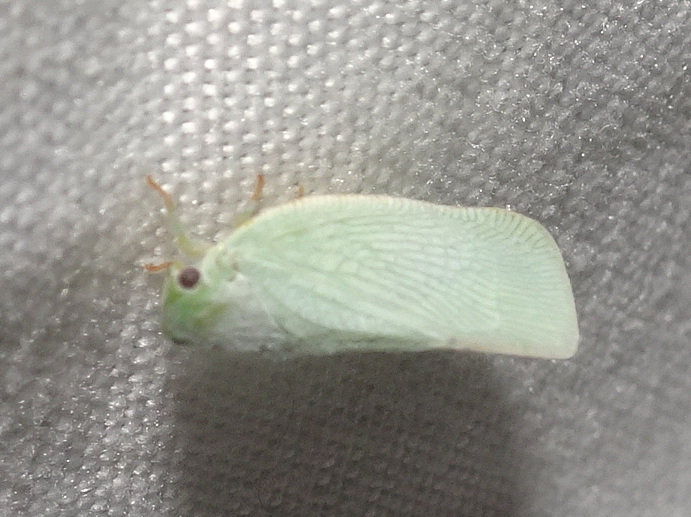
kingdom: Animalia
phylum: Arthropoda
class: Insecta
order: Hemiptera
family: Flatidae
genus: Flatormenis
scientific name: Flatormenis proxima
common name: Northern flatid planthopper
